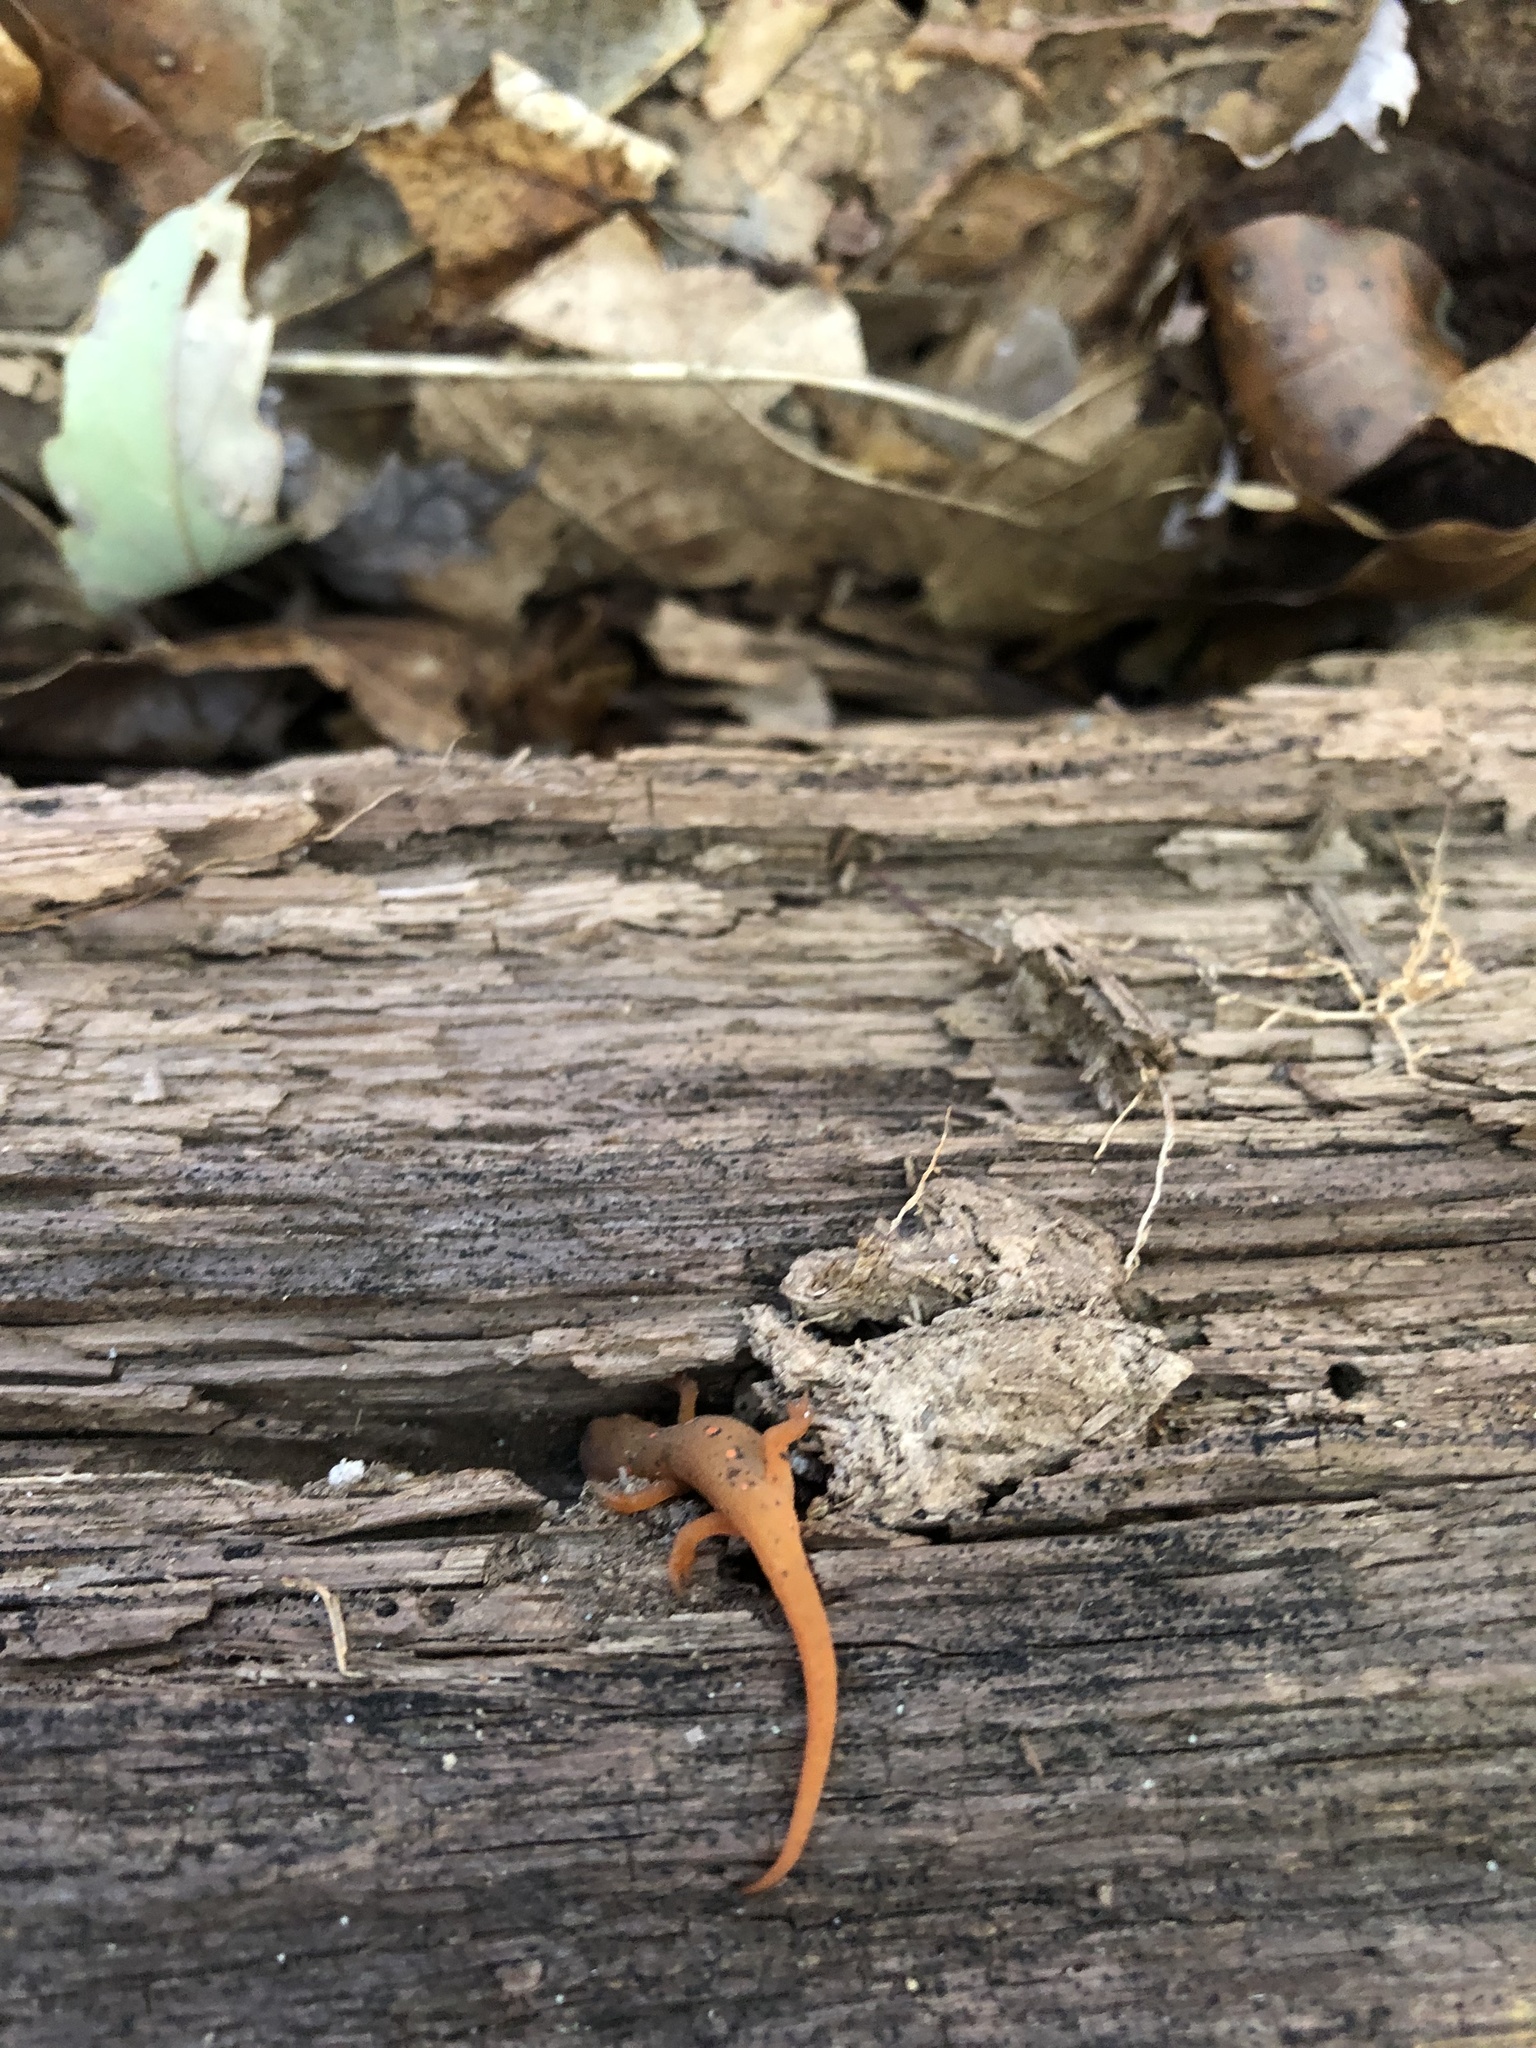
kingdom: Animalia
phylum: Chordata
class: Amphibia
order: Caudata
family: Salamandridae
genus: Notophthalmus
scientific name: Notophthalmus viridescens
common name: Eastern newt
